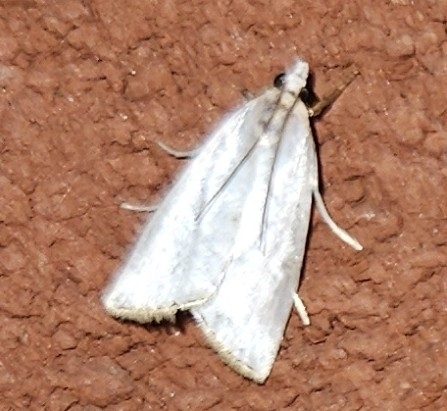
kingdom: Animalia
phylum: Arthropoda
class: Insecta
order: Lepidoptera
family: Crambidae
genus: Argyria
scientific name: Argyria nivalis
